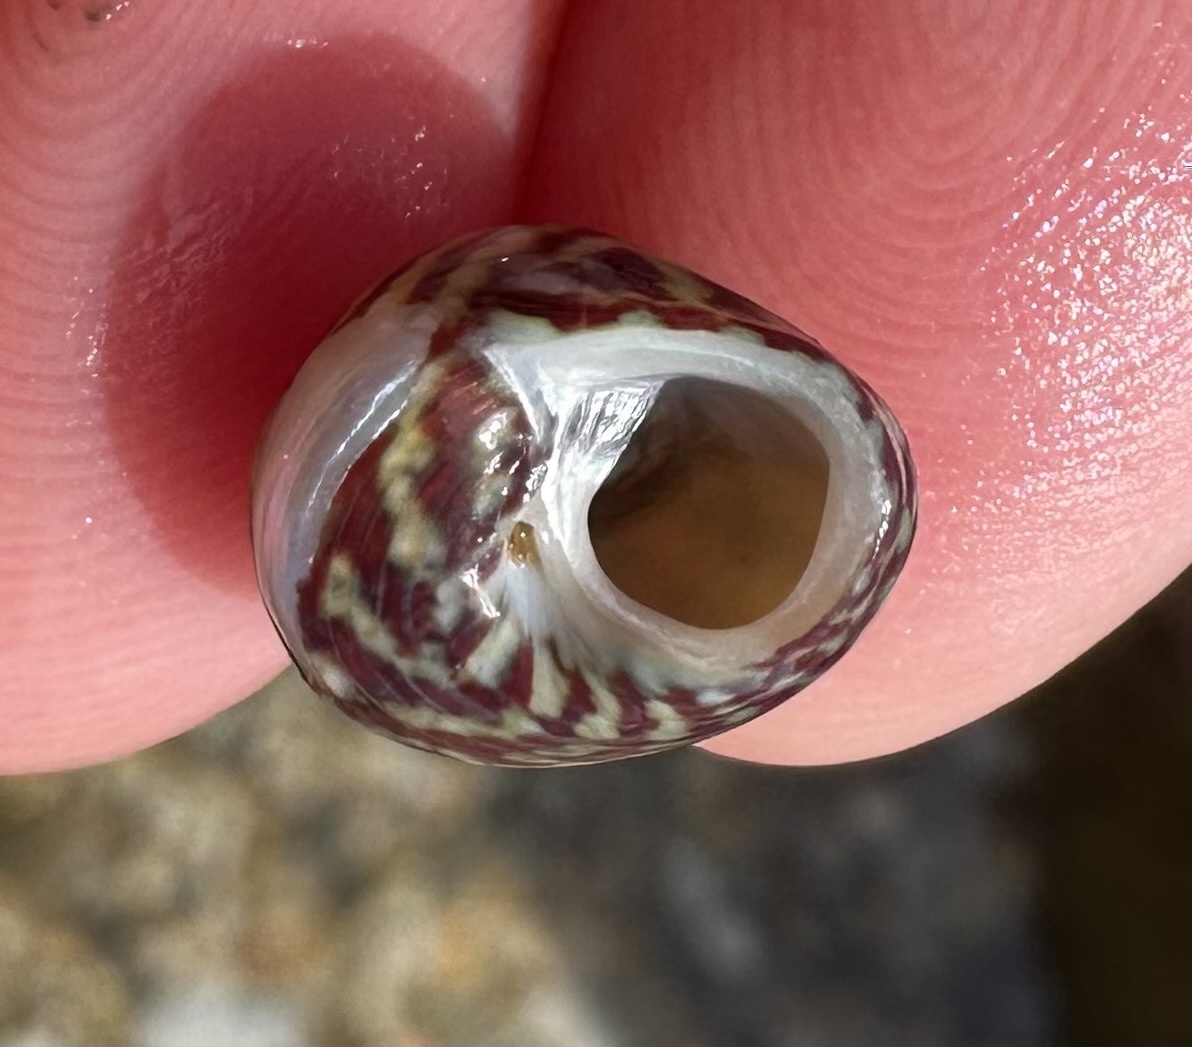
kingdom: Animalia
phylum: Mollusca
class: Gastropoda
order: Trochida
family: Trochidae
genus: Steromphala
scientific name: Steromphala pennanti
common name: Pennant's top shell
